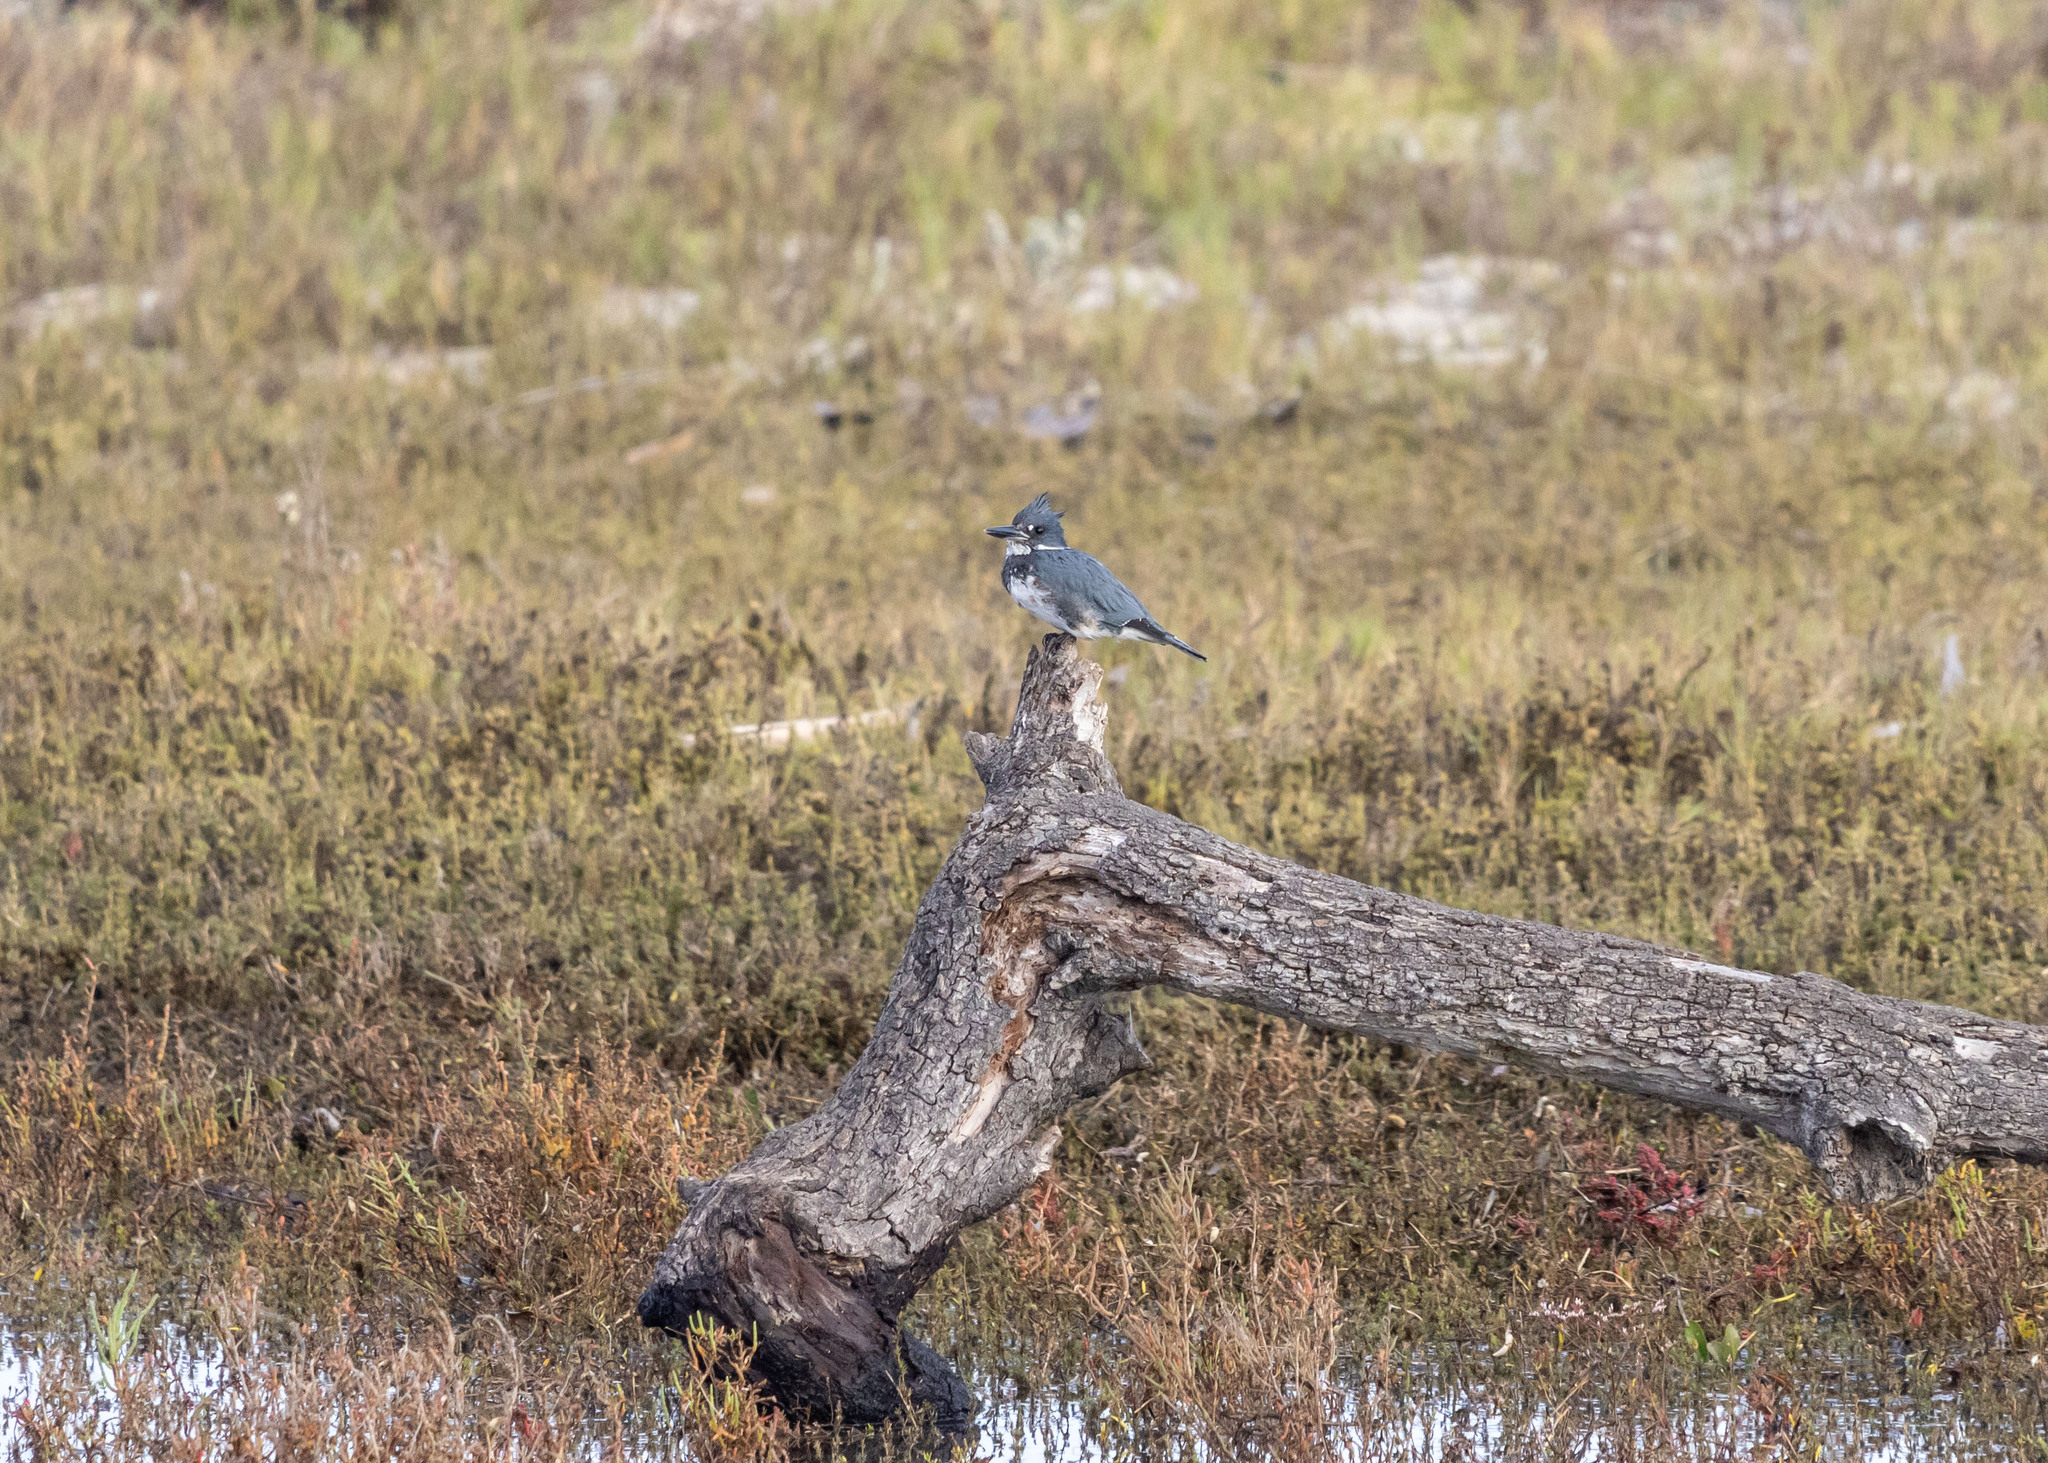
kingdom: Animalia
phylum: Chordata
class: Aves
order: Coraciiformes
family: Alcedinidae
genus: Megaceryle
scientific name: Megaceryle alcyon
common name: Belted kingfisher
